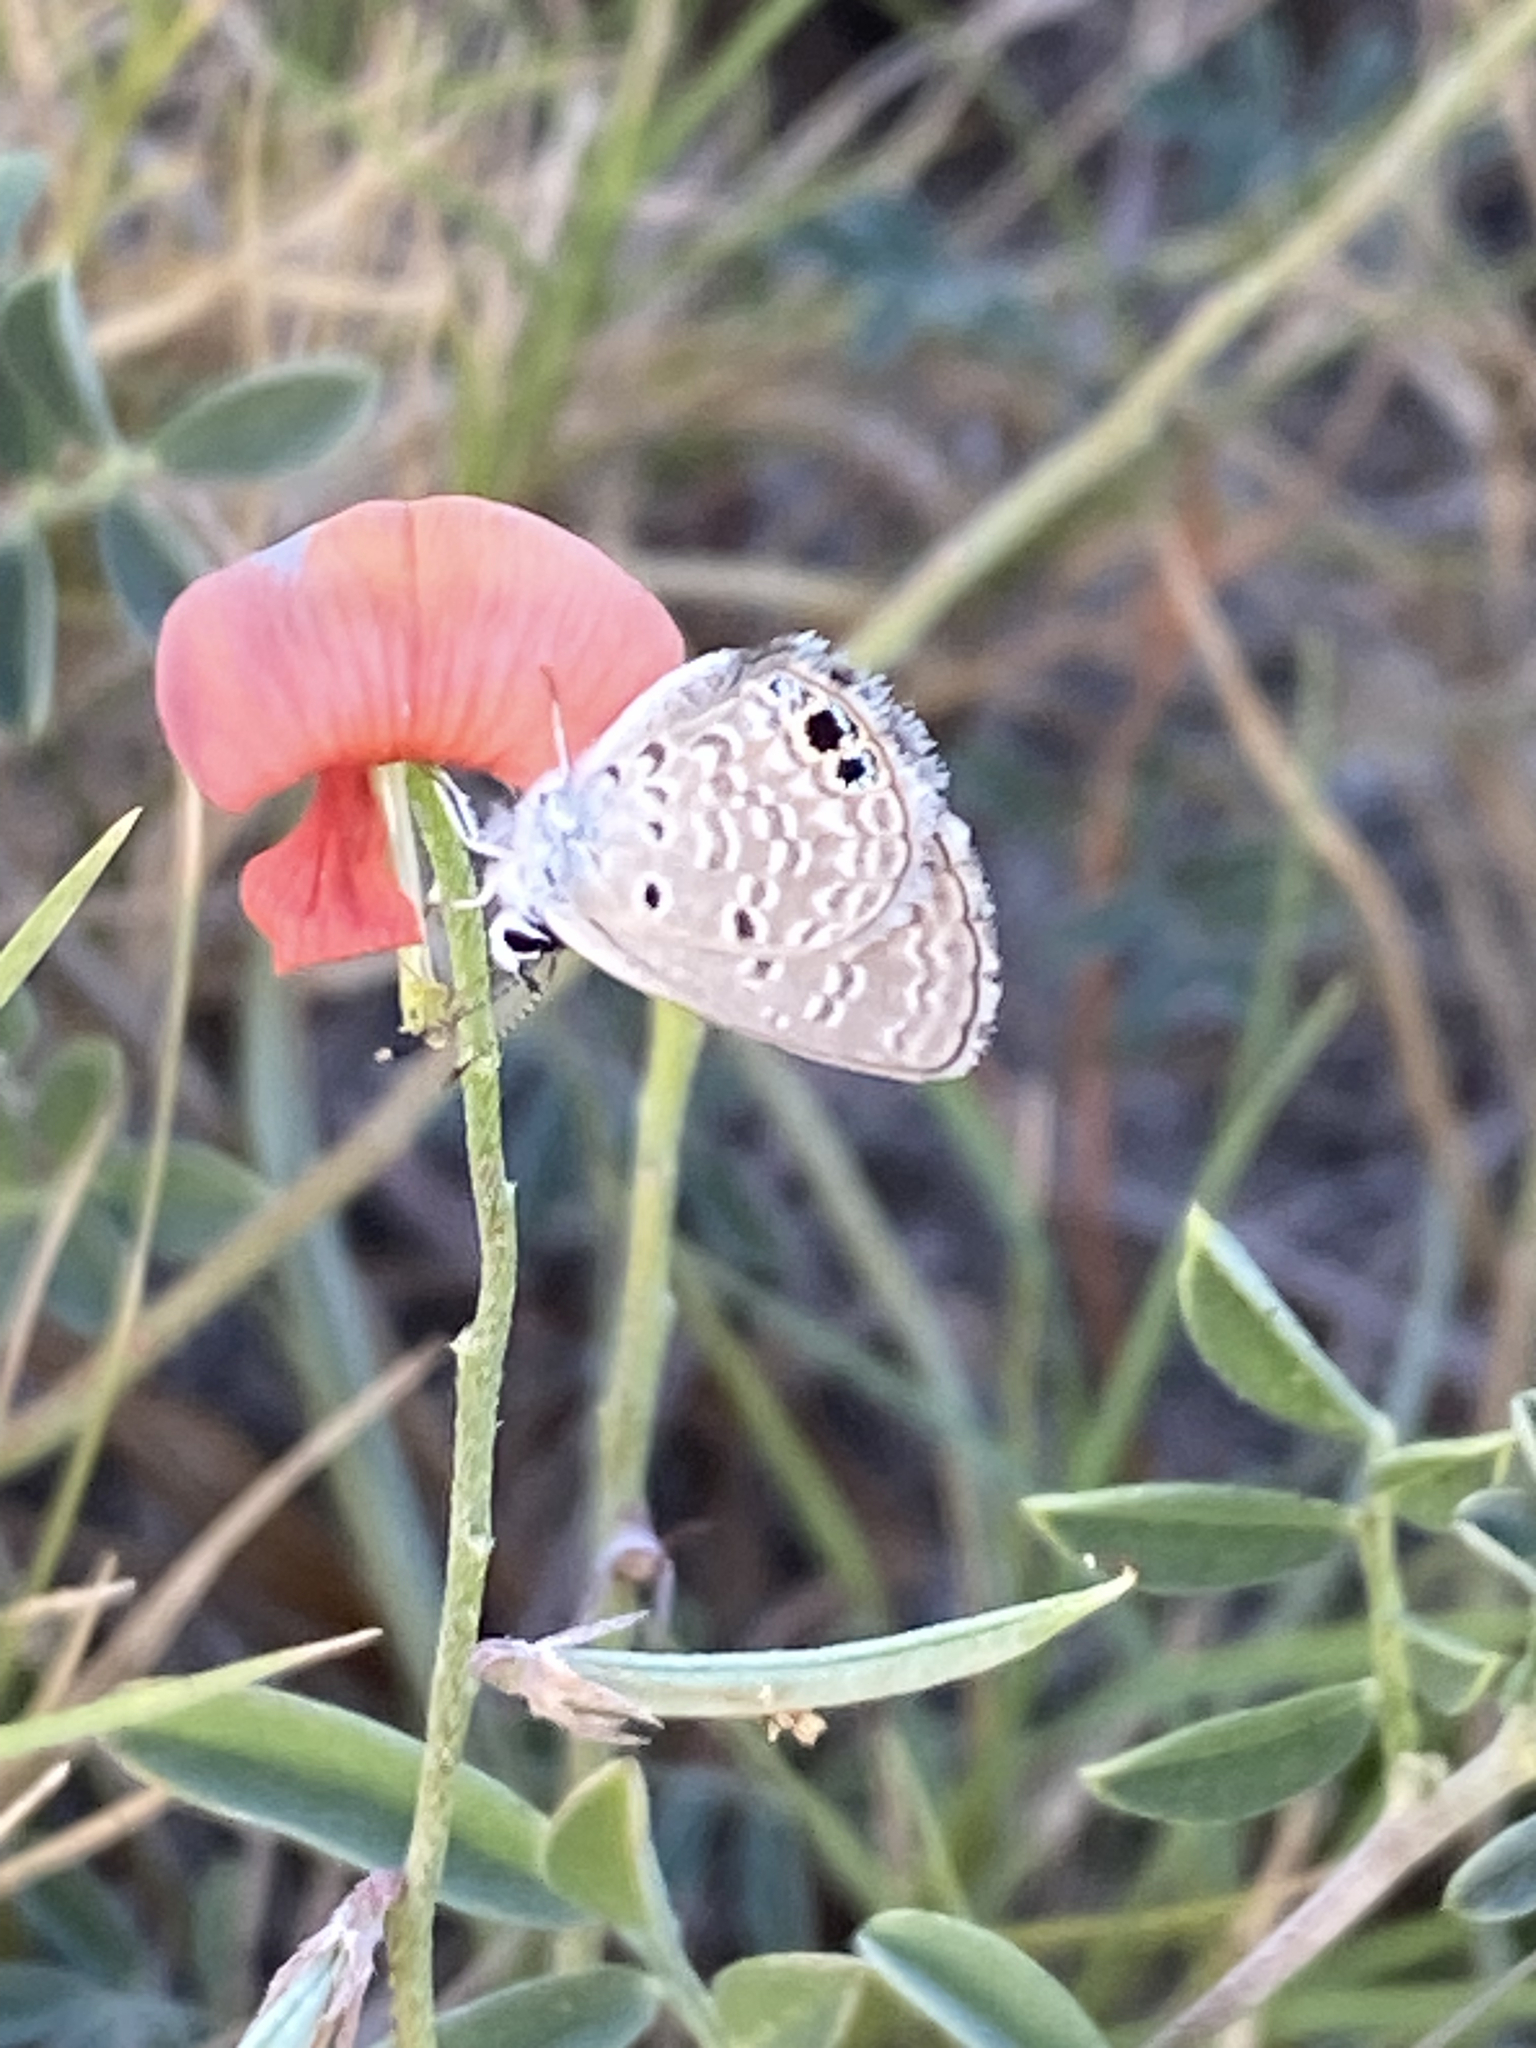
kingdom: Animalia
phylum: Arthropoda
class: Insecta
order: Lepidoptera
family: Lycaenidae
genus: Hemiargus
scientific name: Hemiargus ceraunus
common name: Ceraunus blue
